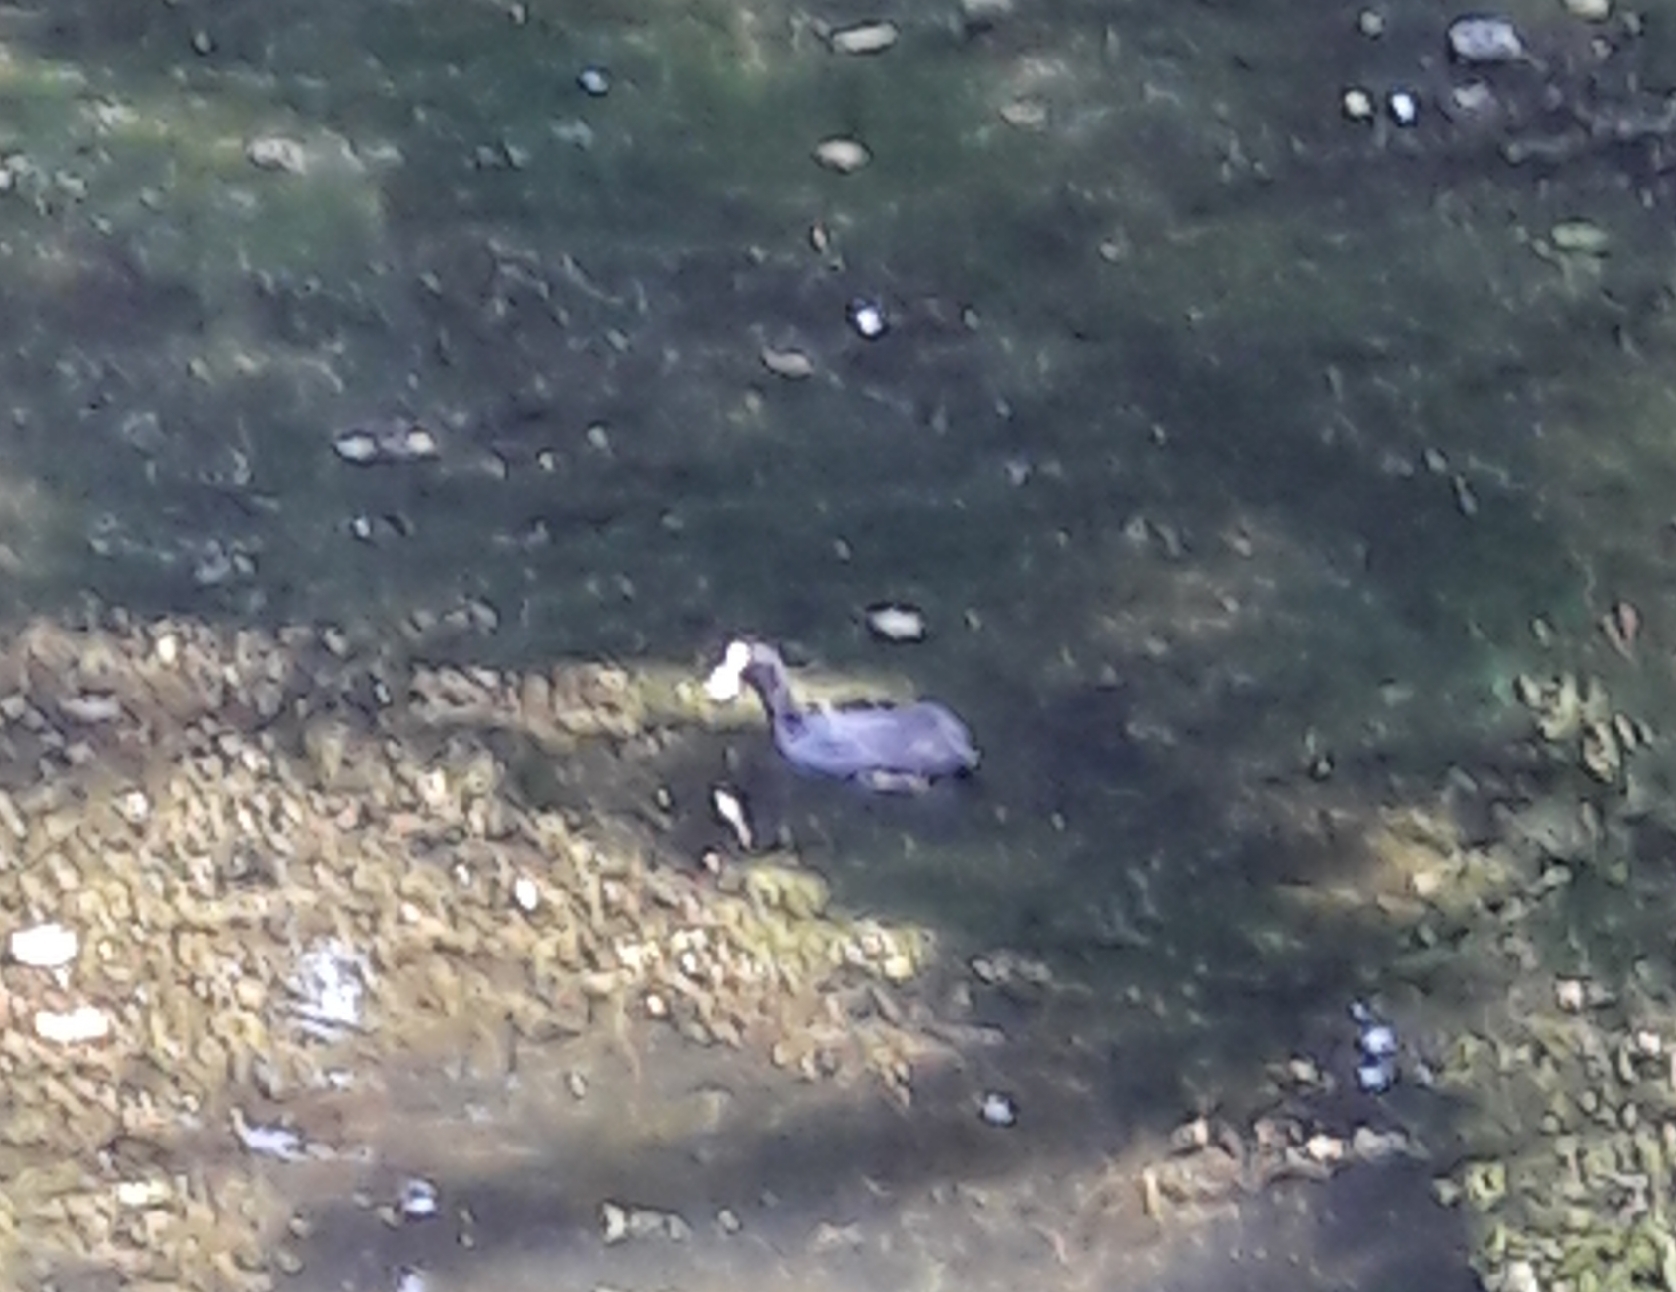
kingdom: Animalia
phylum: Chordata
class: Aves
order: Gruiformes
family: Rallidae
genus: Fulica
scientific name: Fulica atra
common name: Eurasian coot
